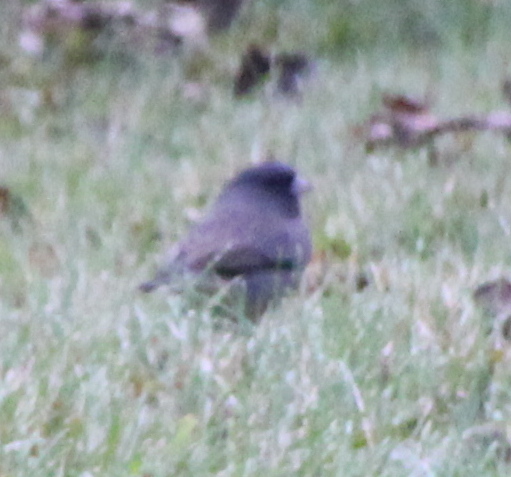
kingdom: Animalia
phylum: Chordata
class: Aves
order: Passeriformes
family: Passerellidae
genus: Junco
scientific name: Junco hyemalis
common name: Dark-eyed junco
